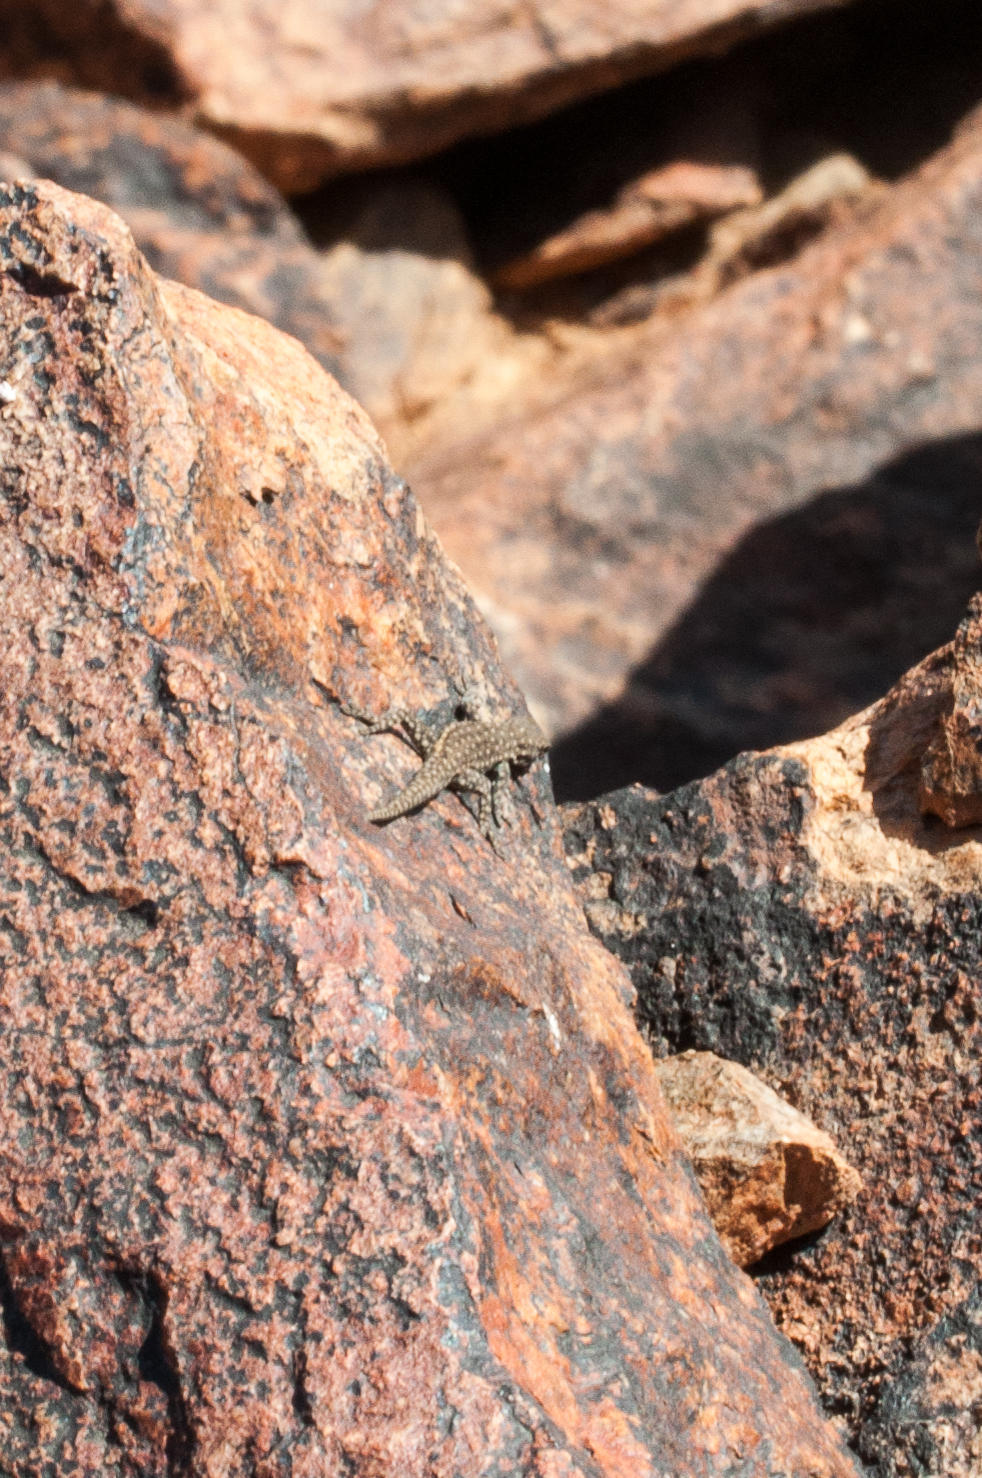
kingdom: Animalia
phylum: Chordata
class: Squamata
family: Gekkonidae
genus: Rhoptropella
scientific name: Rhoptropella ocellata
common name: Namaqua day gecko
